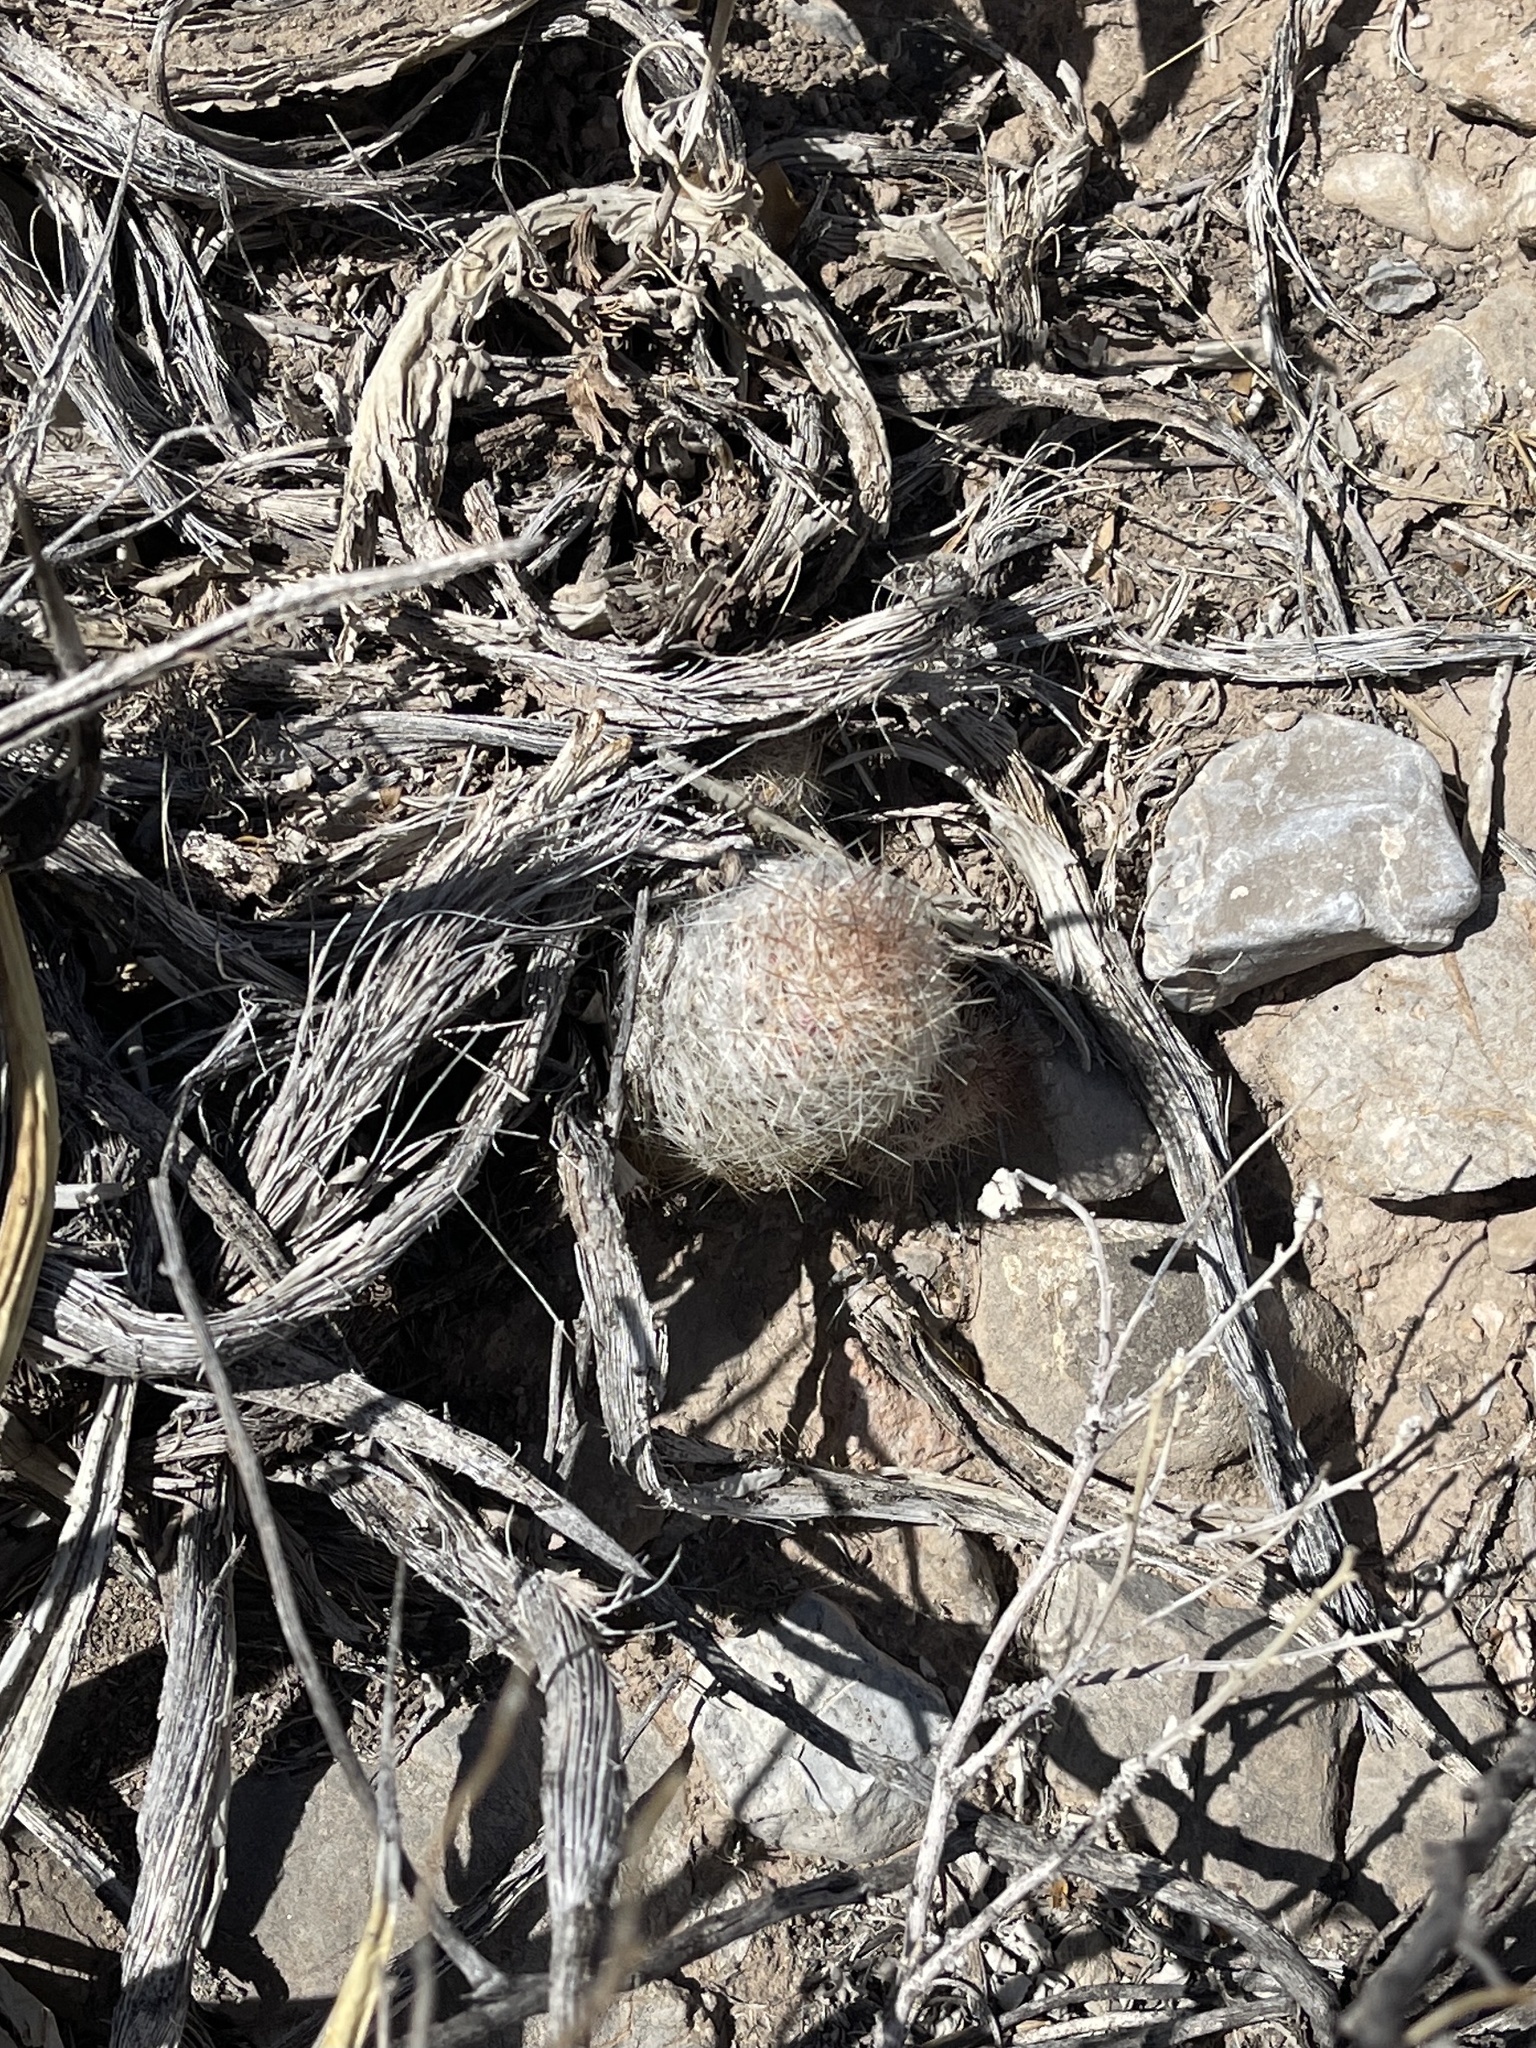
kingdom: Plantae
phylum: Tracheophyta
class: Magnoliopsida
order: Caryophyllales
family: Cactaceae
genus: Pelecyphora
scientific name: Pelecyphora tuberculosa
